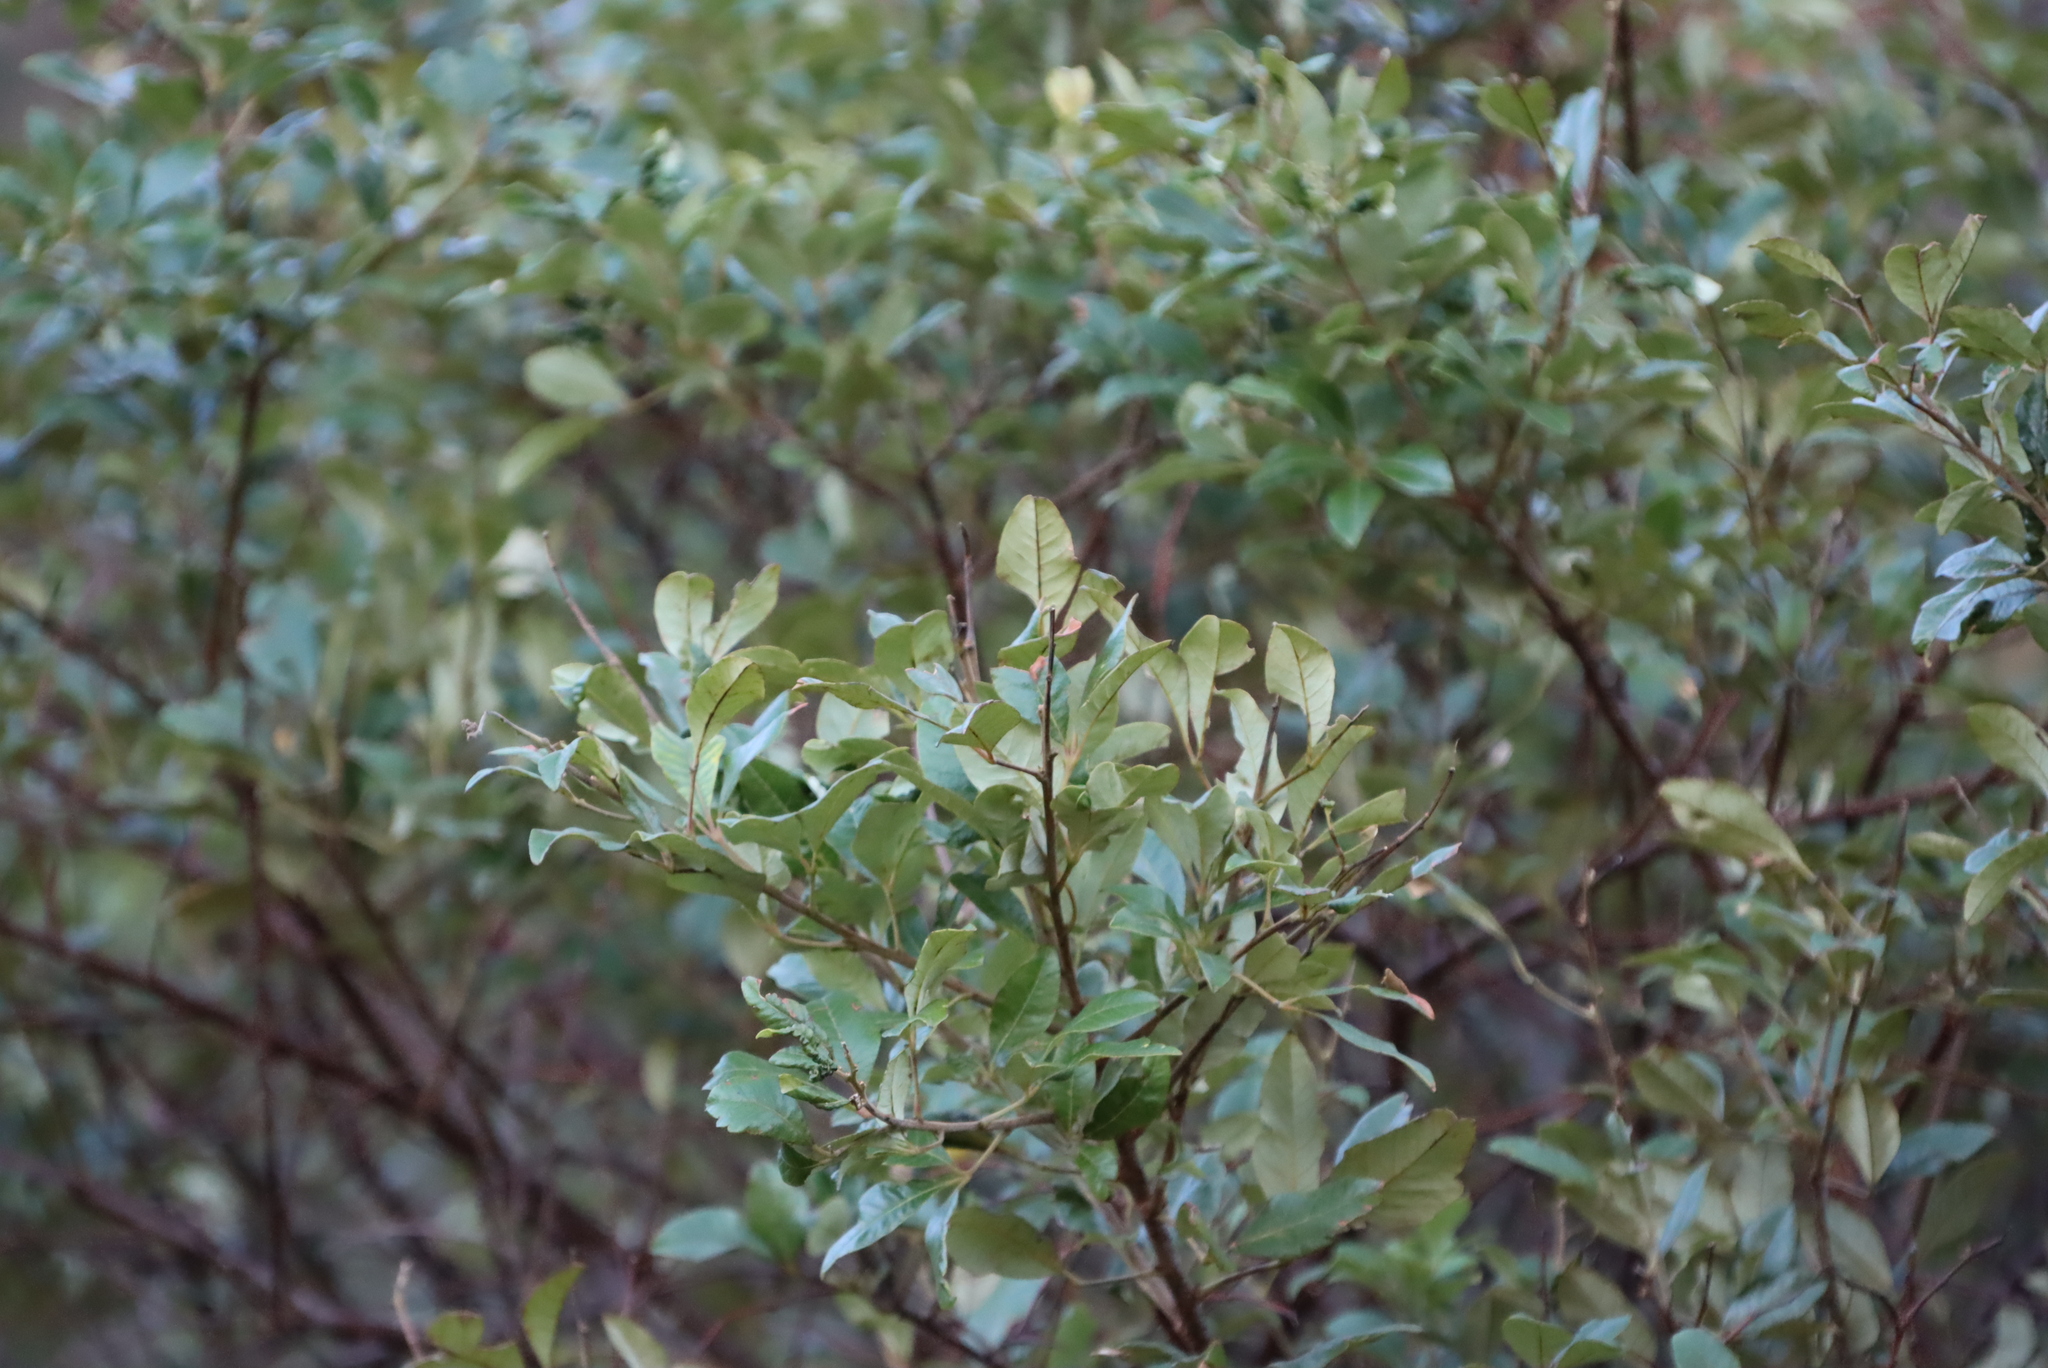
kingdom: Plantae
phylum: Tracheophyta
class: Magnoliopsida
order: Sapindales
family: Anacardiaceae
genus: Searsia
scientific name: Searsia tomentosa
